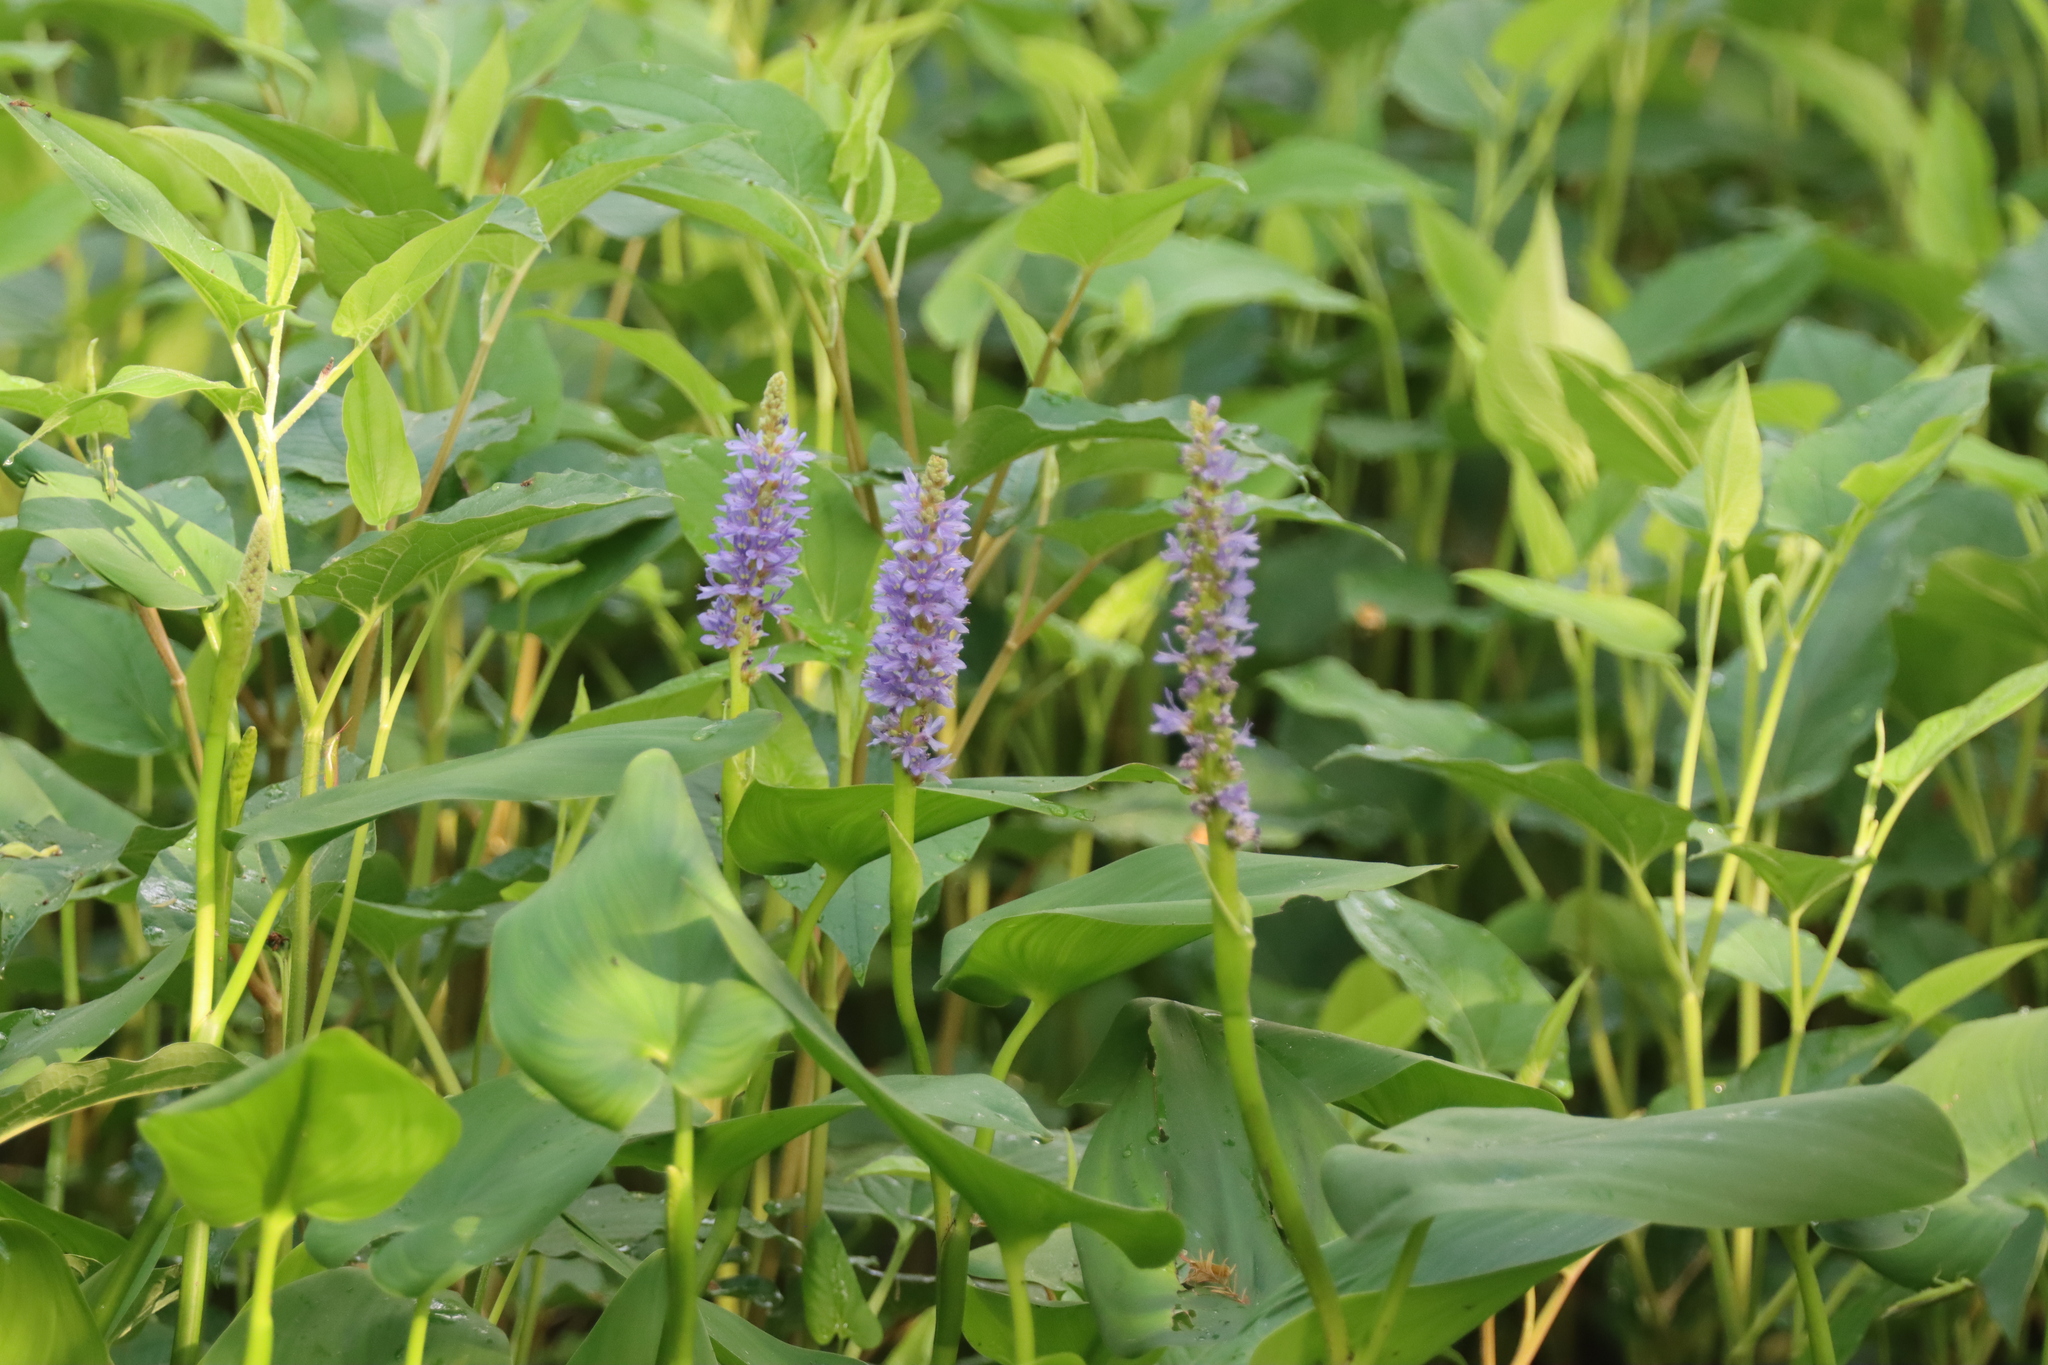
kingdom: Plantae
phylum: Tracheophyta
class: Liliopsida
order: Commelinales
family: Pontederiaceae
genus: Pontederia
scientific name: Pontederia cordata
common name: Pickerelweed
